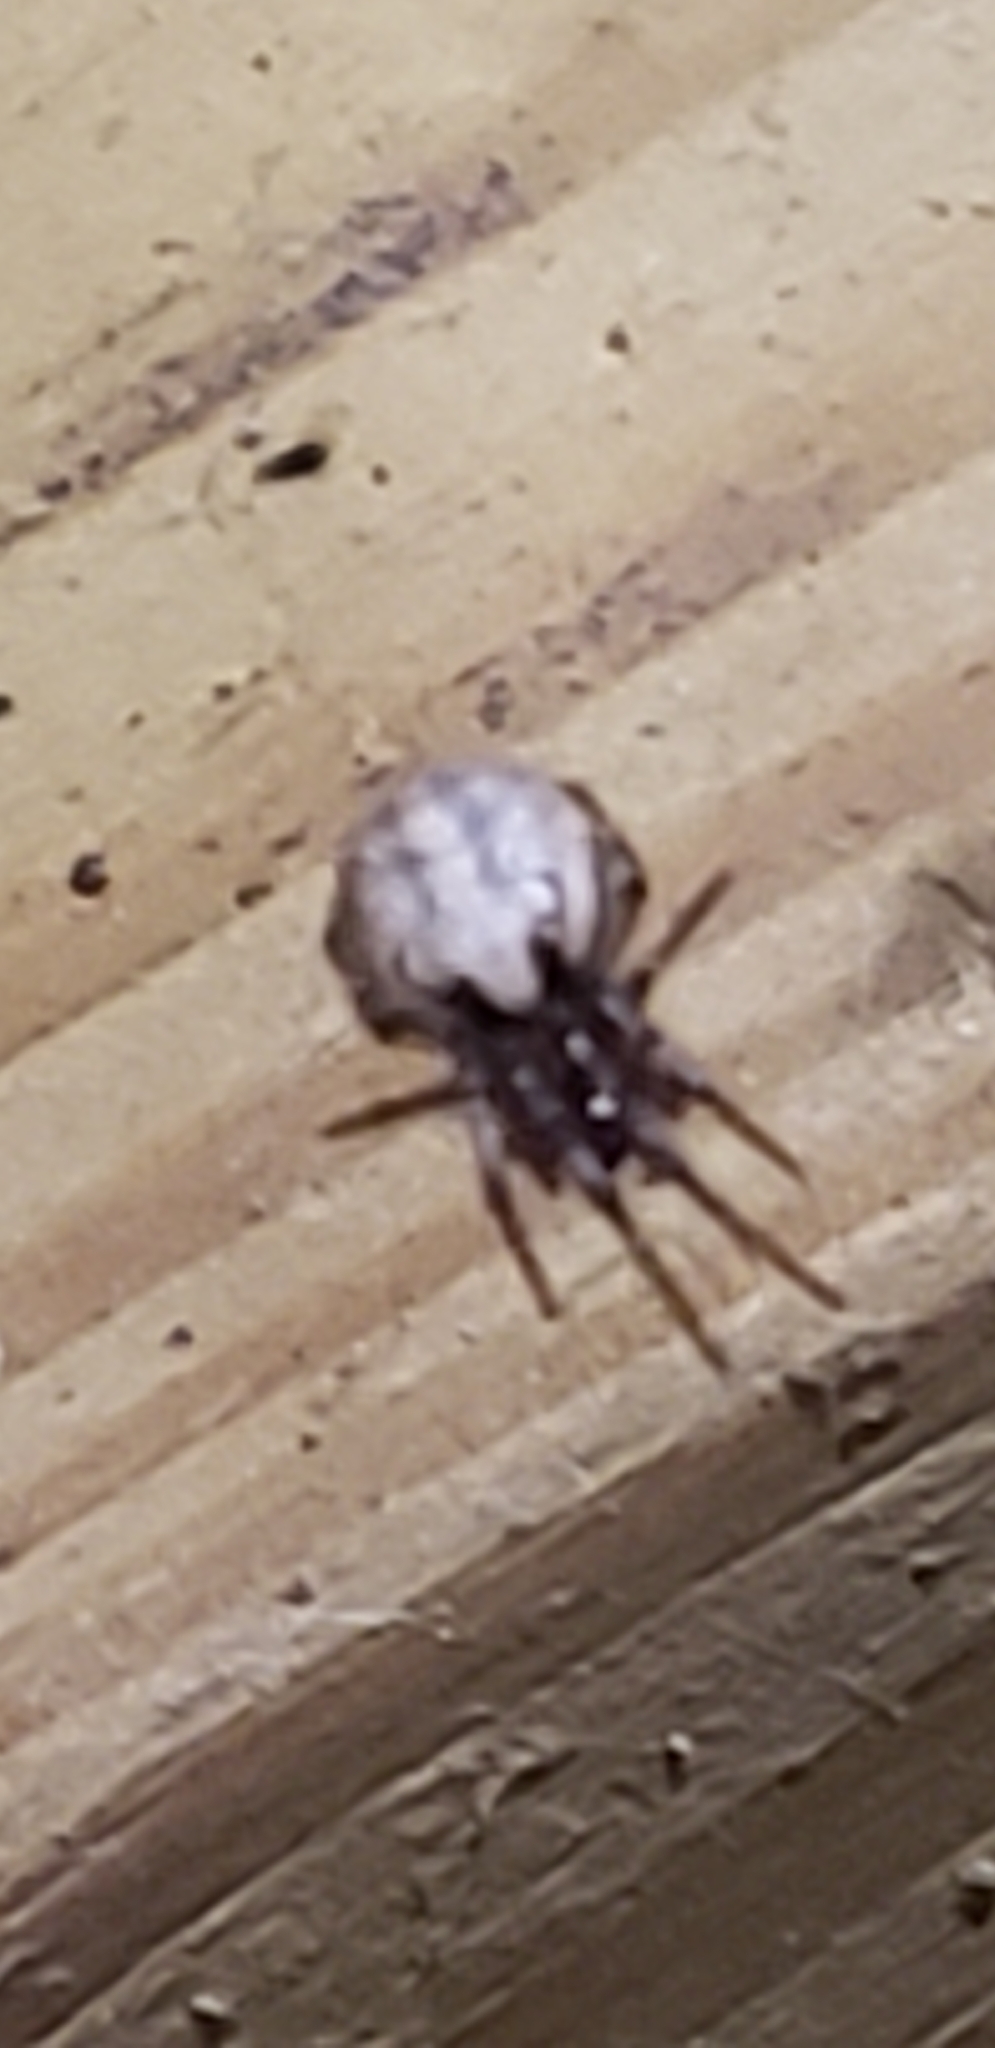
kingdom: Animalia
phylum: Arthropoda
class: Arachnida
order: Araneae
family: Araneidae
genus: Metazygia
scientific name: Metazygia zilloides
